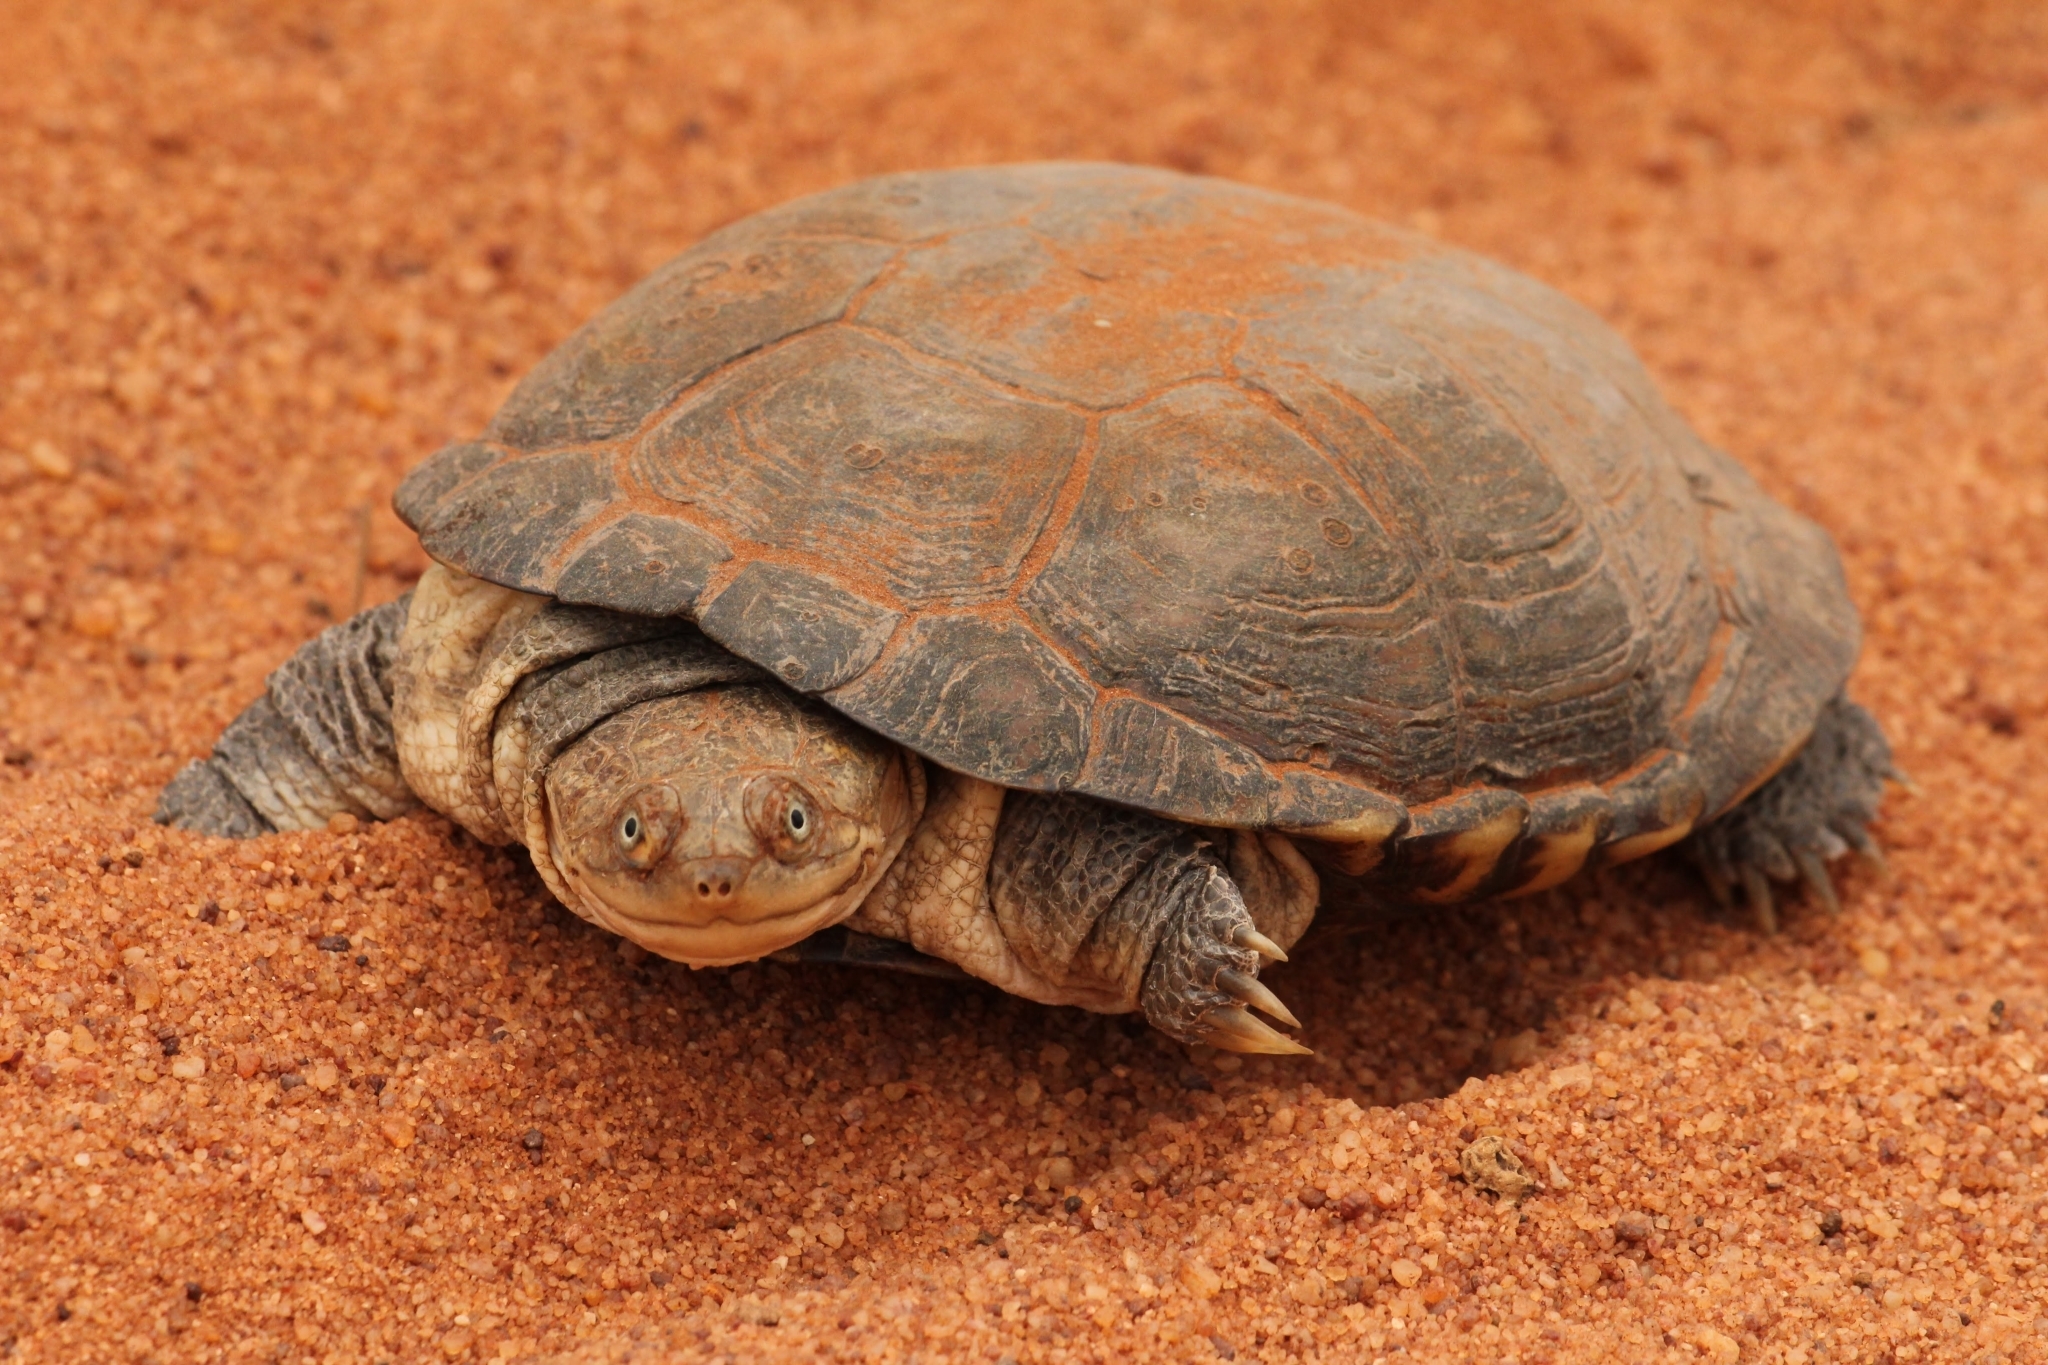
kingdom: Animalia
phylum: Chordata
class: Testudines
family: Pelomedusidae
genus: Pelomedusa
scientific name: Pelomedusa subrufa
